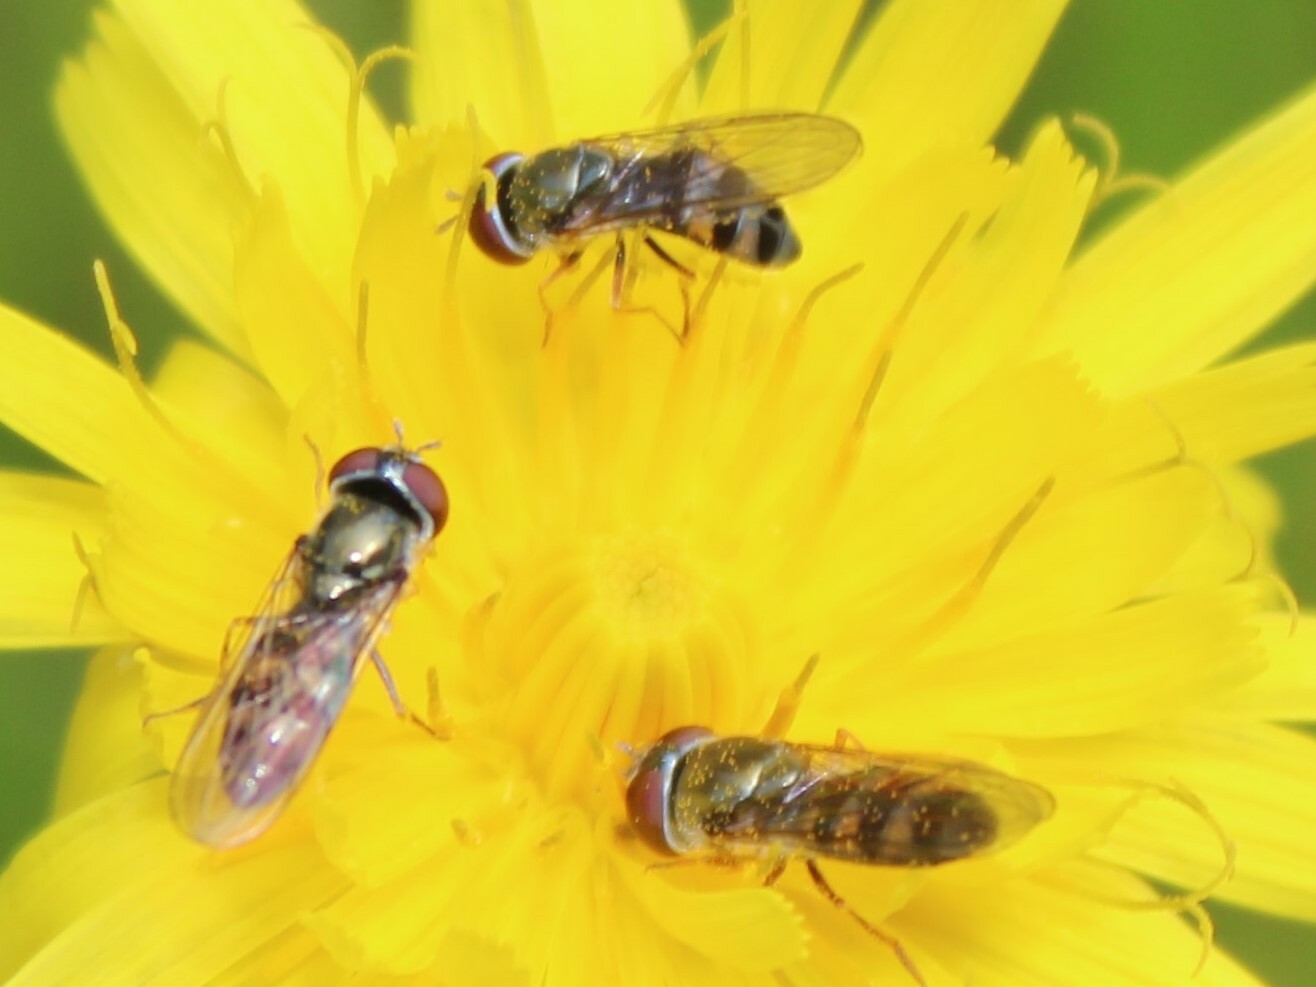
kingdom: Animalia
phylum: Arthropoda
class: Insecta
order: Diptera
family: Syrphidae
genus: Platycheirus
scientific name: Platycheirus
